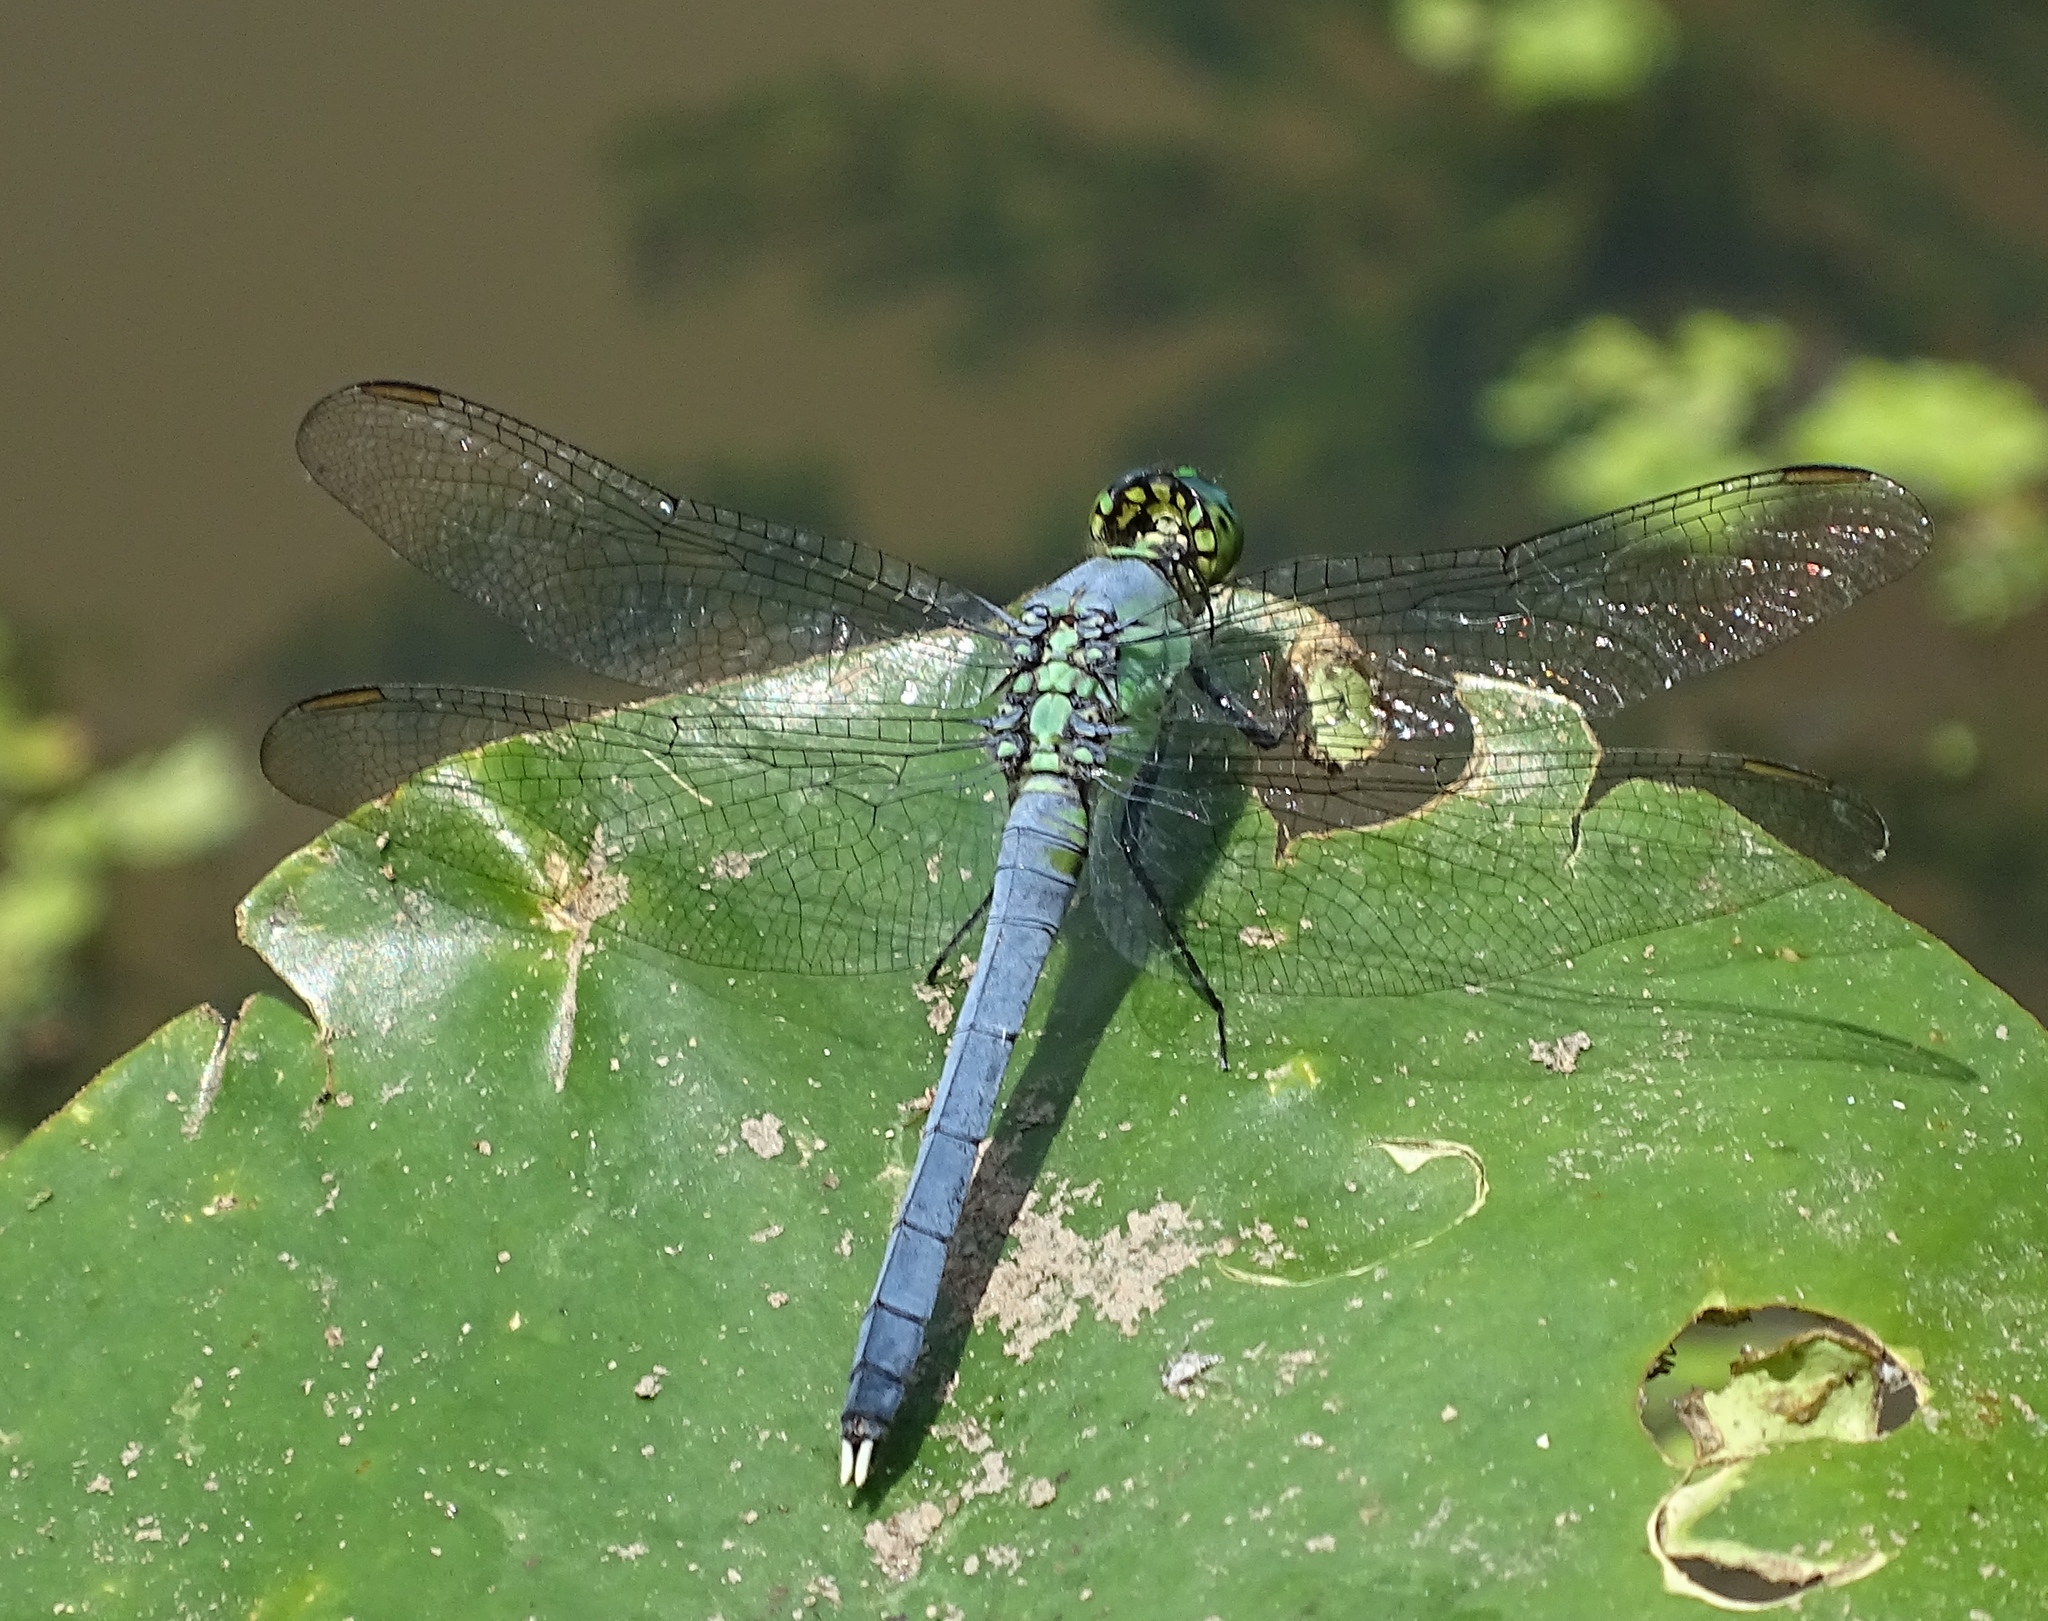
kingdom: Animalia
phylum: Arthropoda
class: Insecta
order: Odonata
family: Libellulidae
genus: Erythemis
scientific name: Erythemis simplicicollis
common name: Eastern pondhawk
